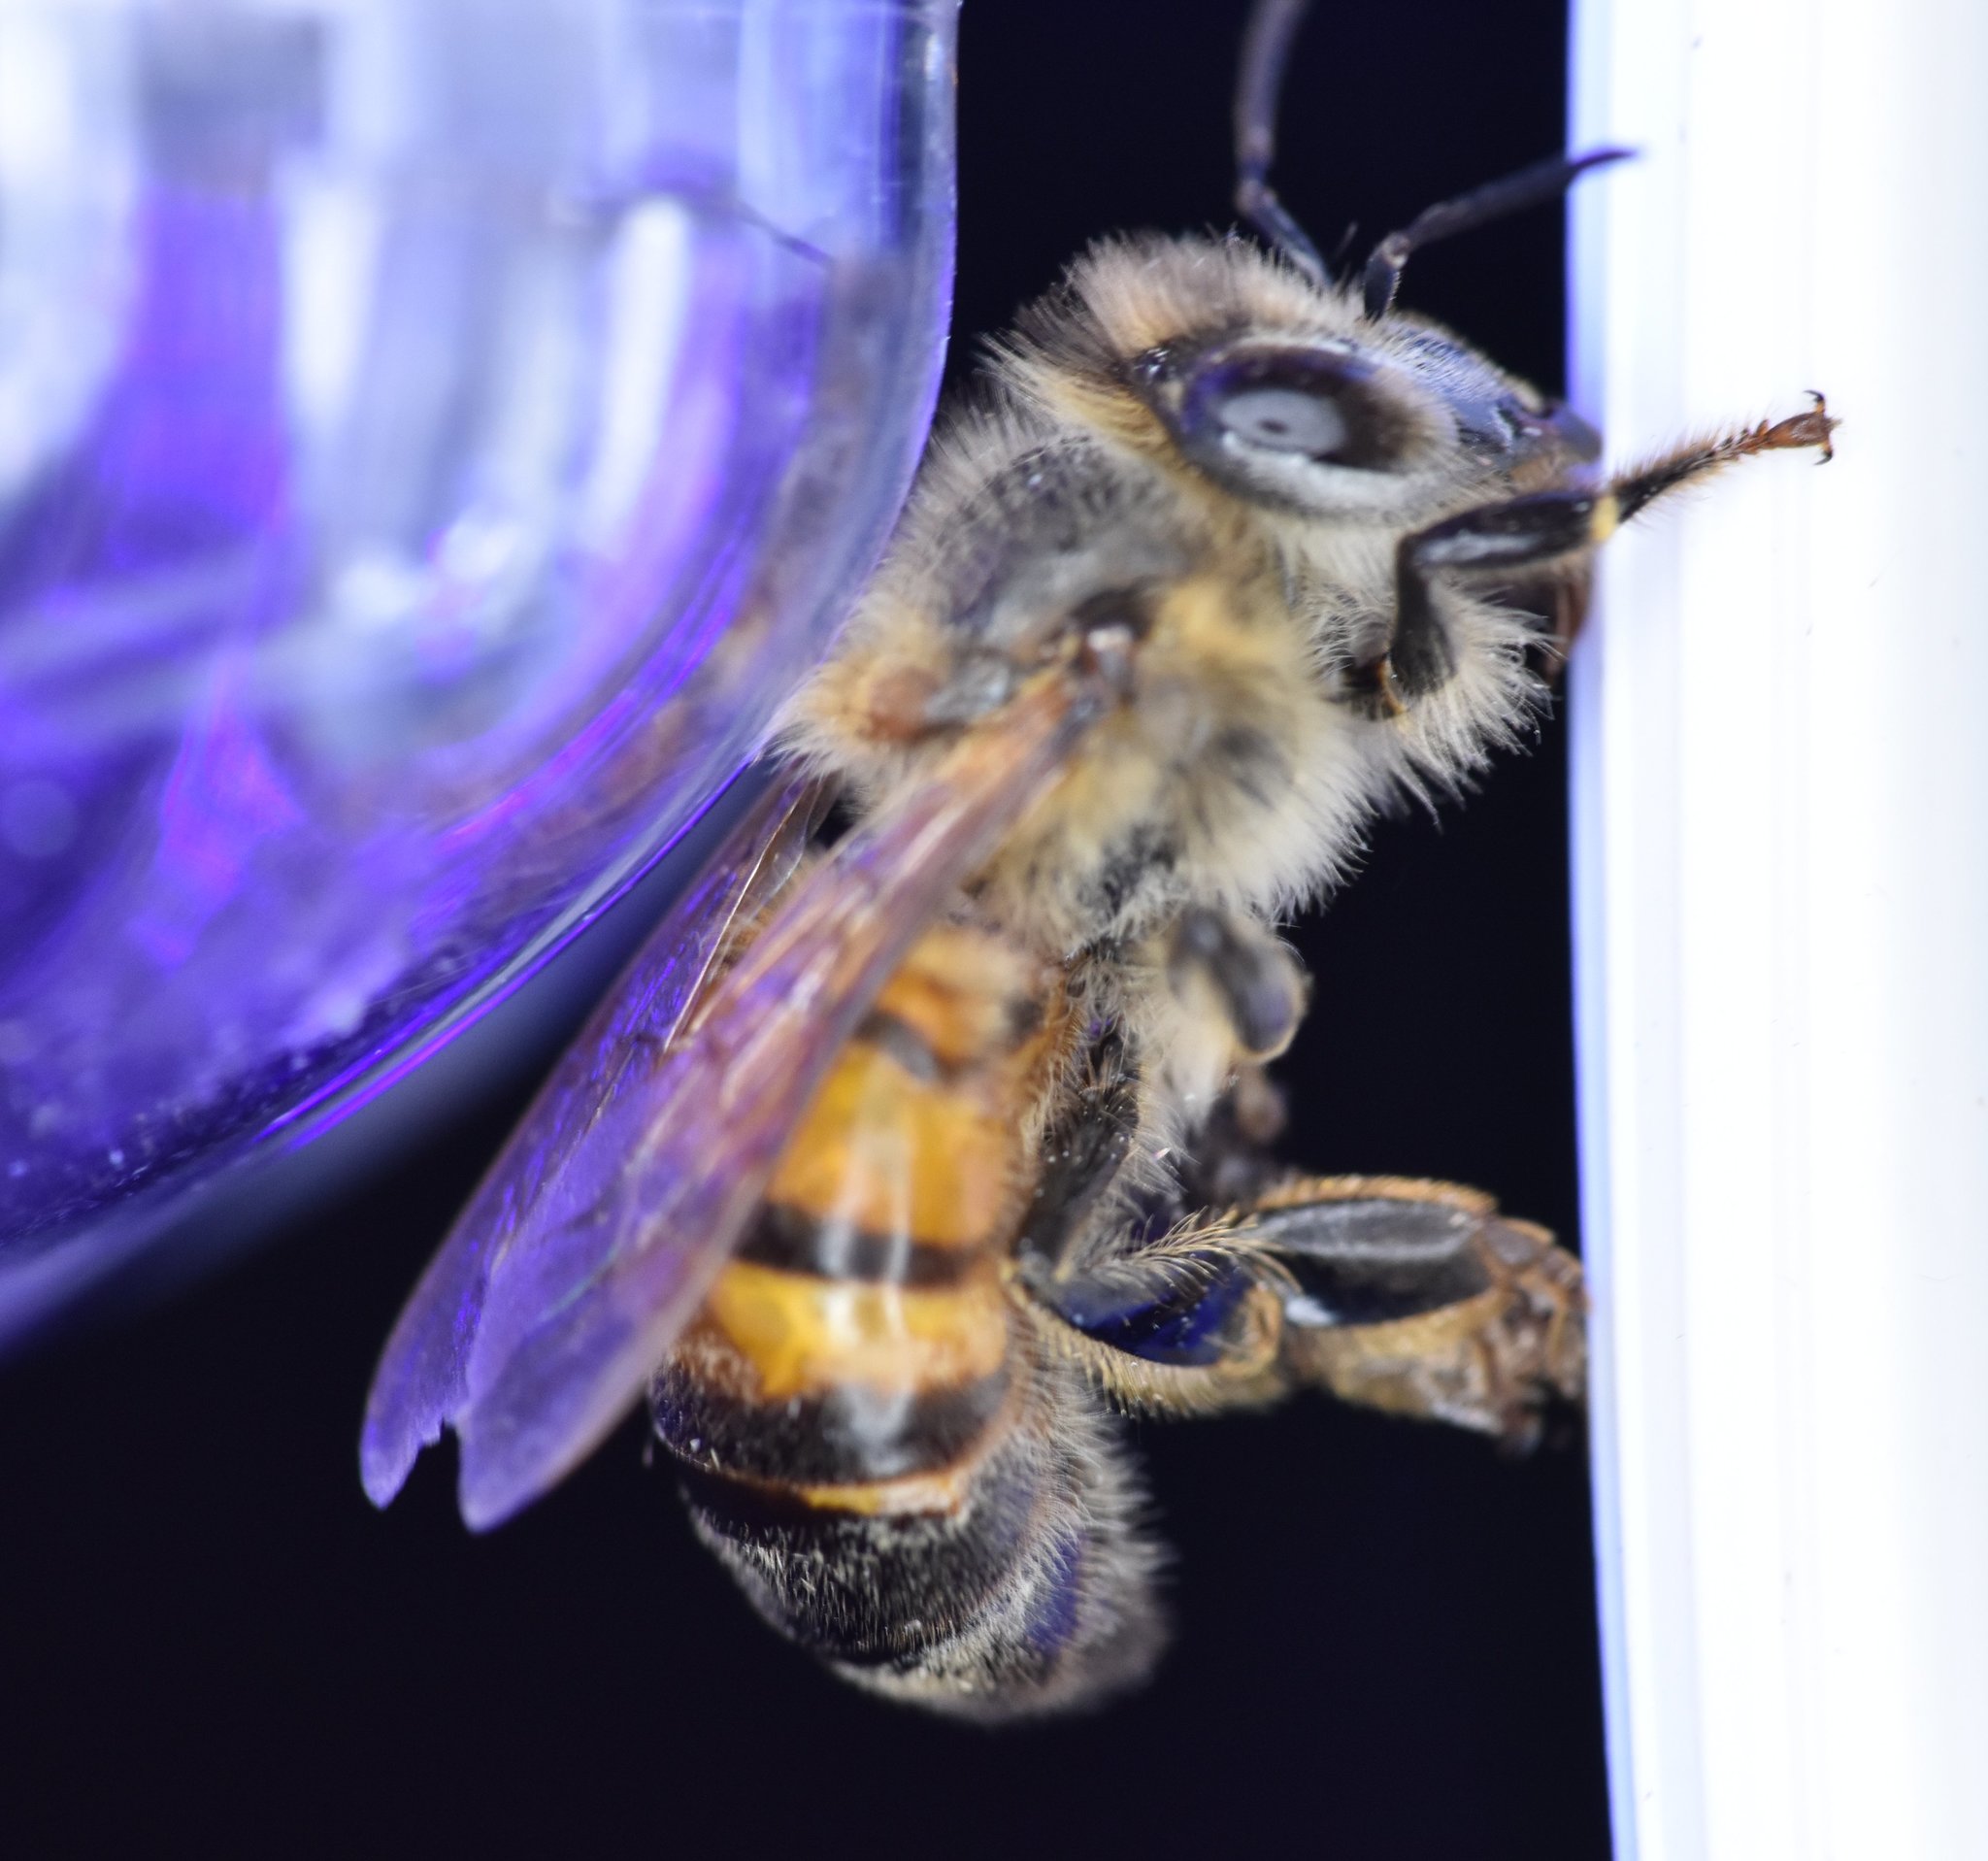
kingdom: Animalia
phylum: Arthropoda
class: Insecta
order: Hymenoptera
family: Apidae
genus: Apis
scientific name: Apis mellifera
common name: Honey bee
